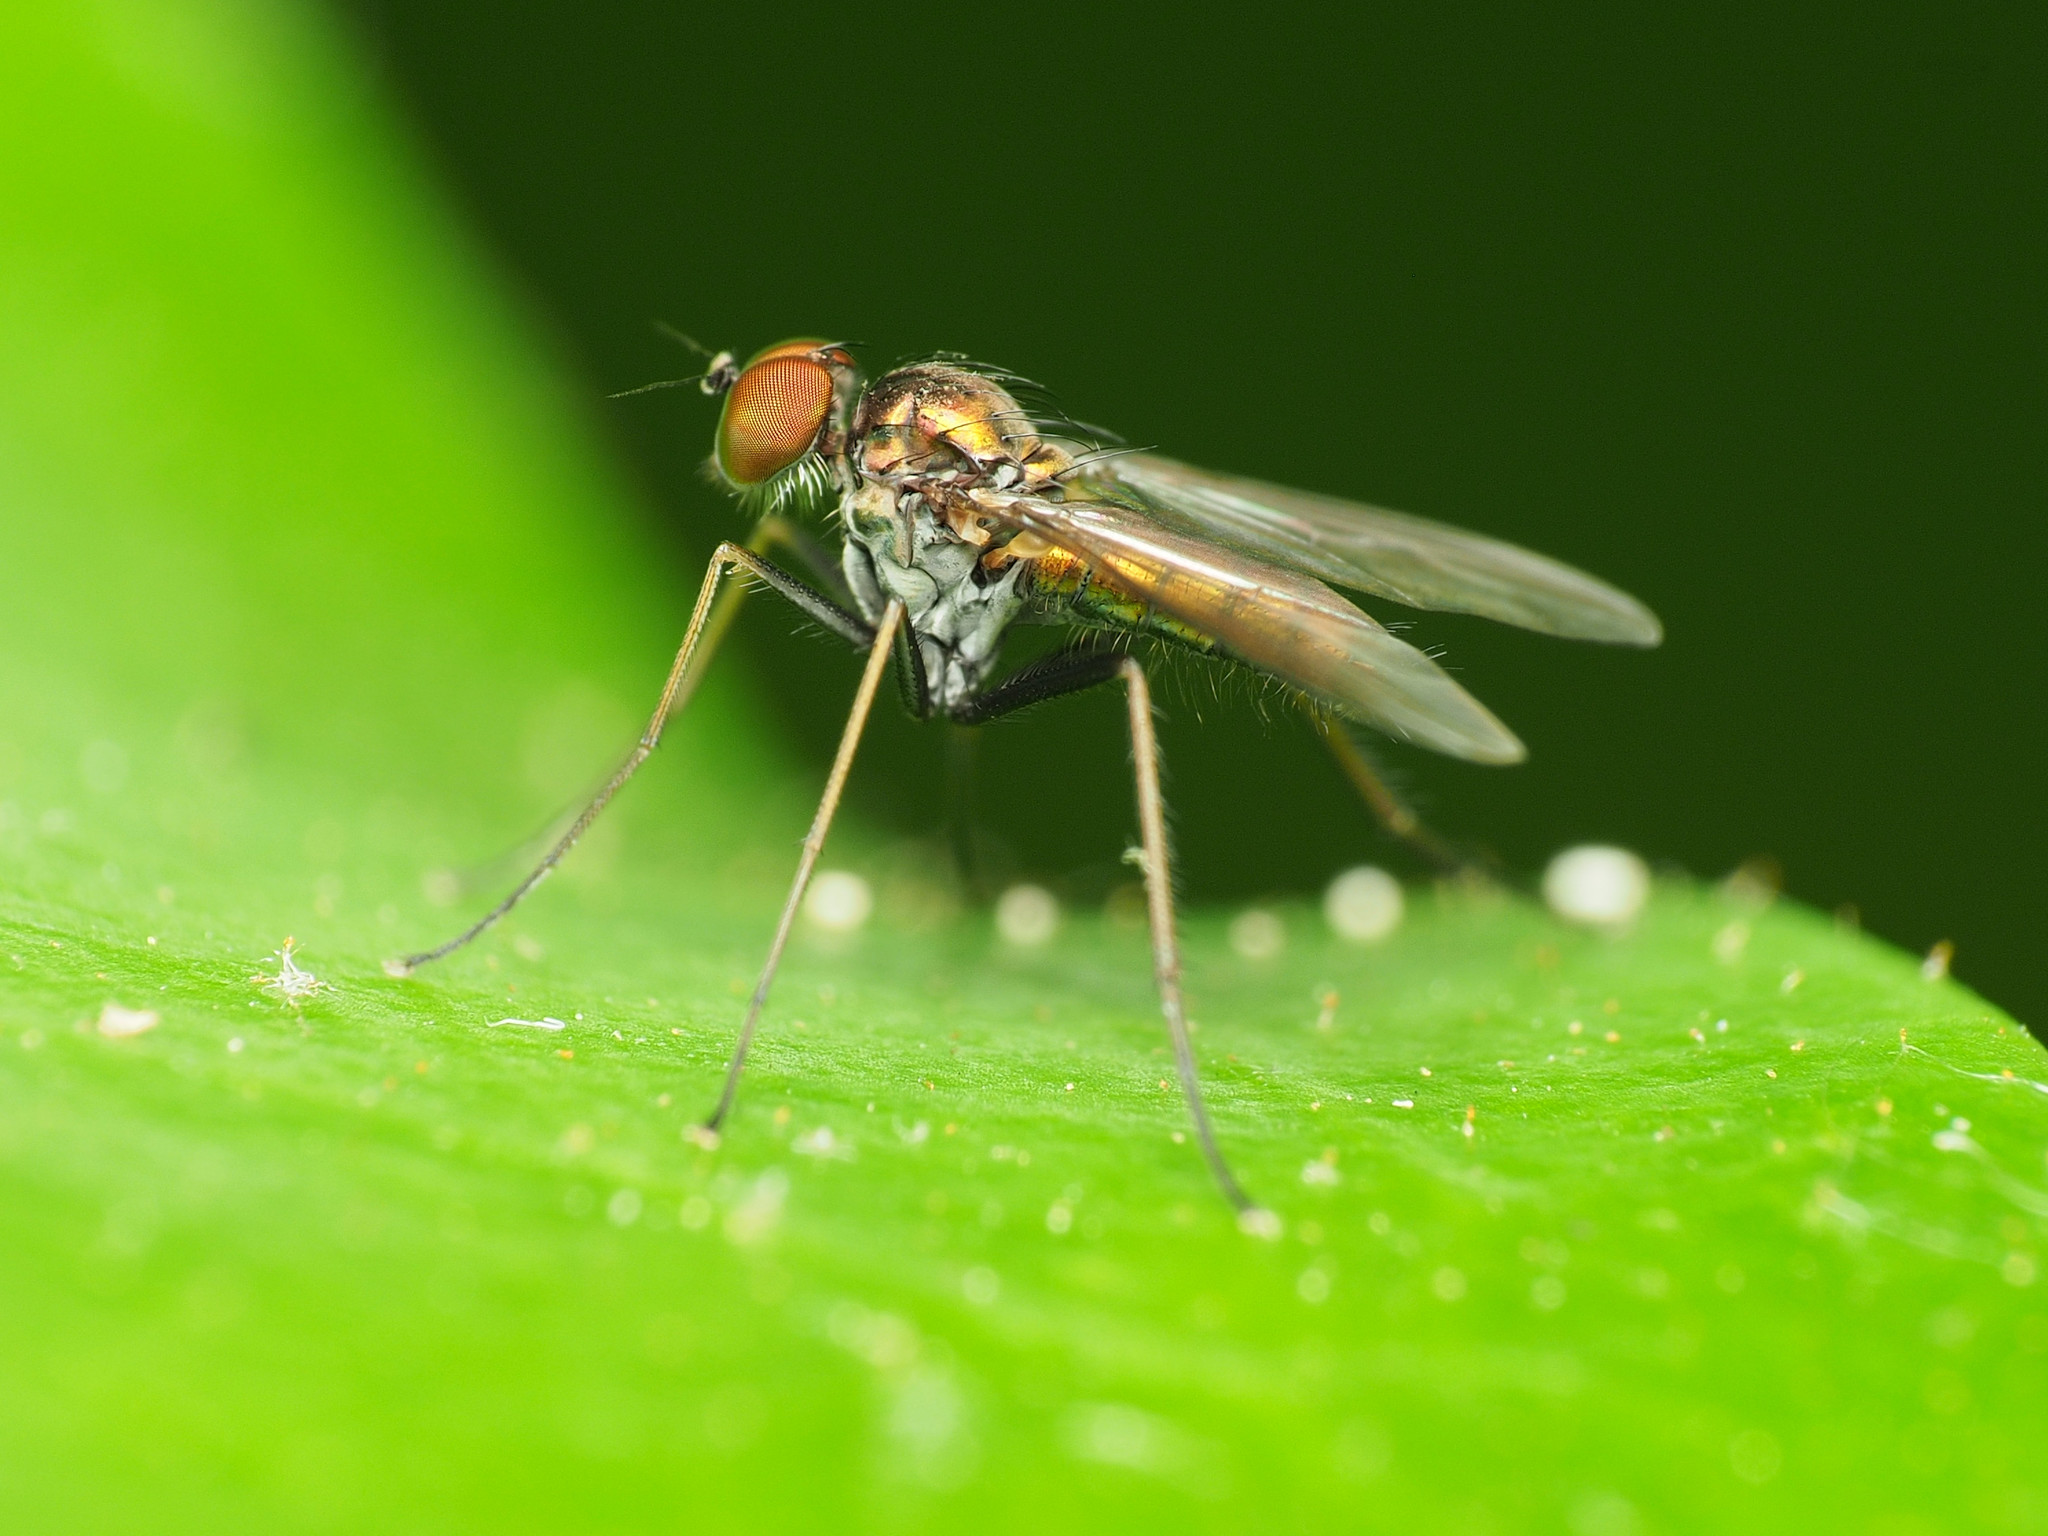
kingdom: Animalia
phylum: Arthropoda
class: Insecta
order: Diptera
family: Dolichopodidae
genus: Chrysotus
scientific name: Chrysotus spectabilis
